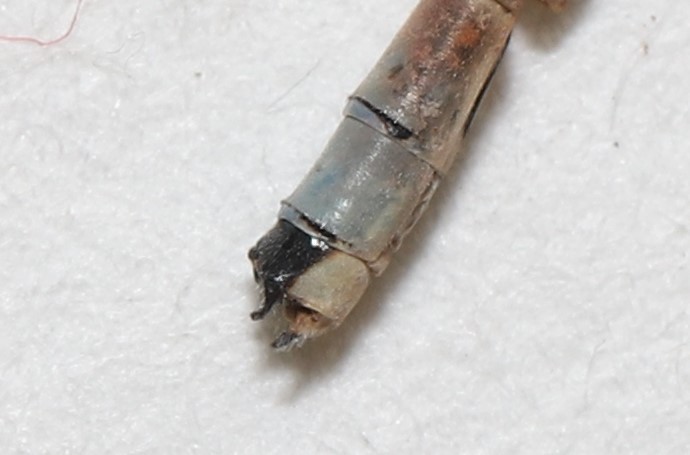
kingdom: Animalia
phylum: Arthropoda
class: Insecta
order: Odonata
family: Coenagrionidae
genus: Enallagma
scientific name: Enallagma hageni
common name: Hagen's bluet
